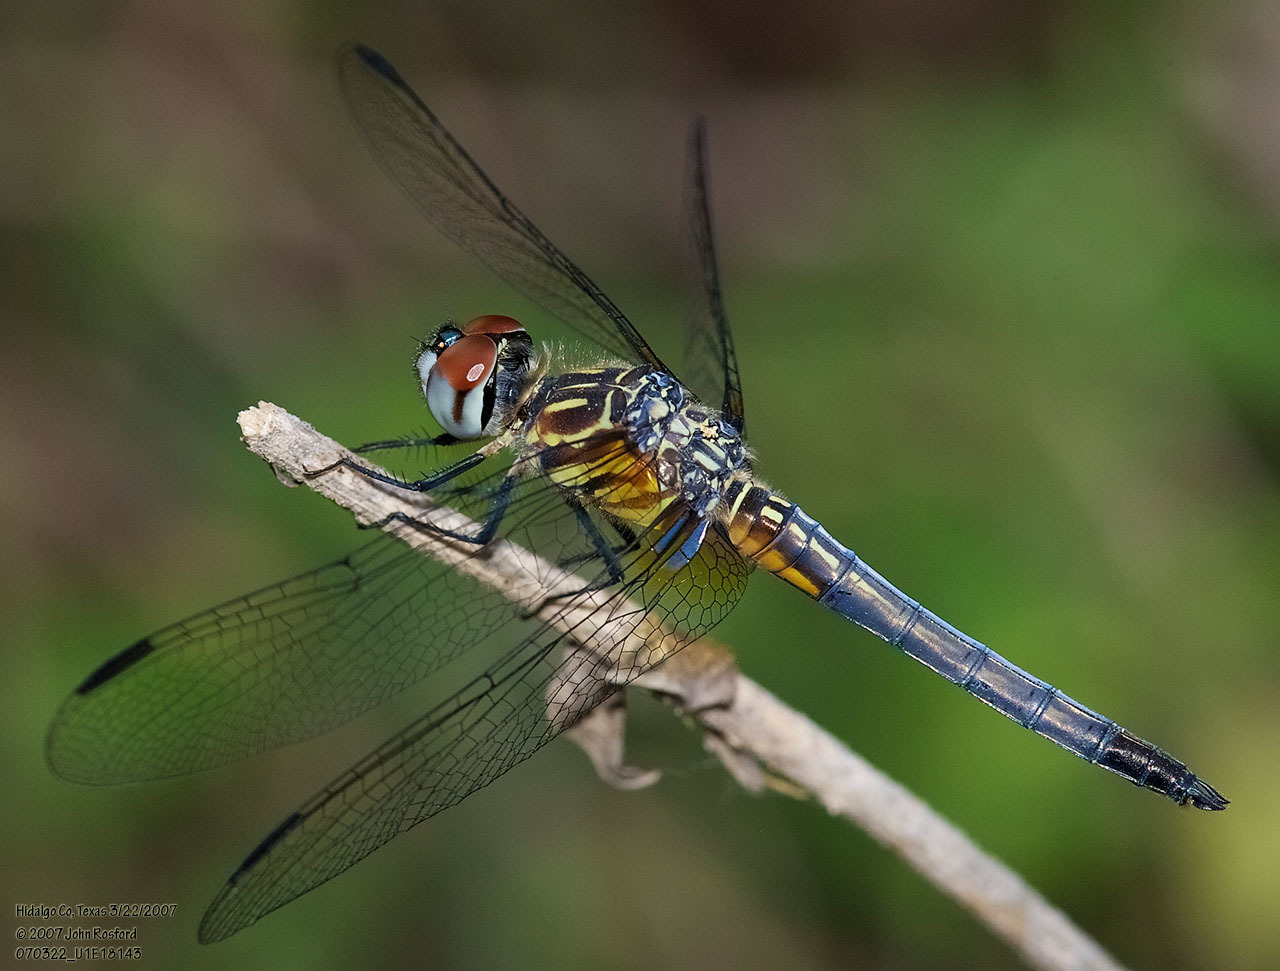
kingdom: Animalia
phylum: Arthropoda
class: Insecta
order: Odonata
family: Libellulidae
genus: Pachydiplax
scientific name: Pachydiplax longipennis
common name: Blue dasher
